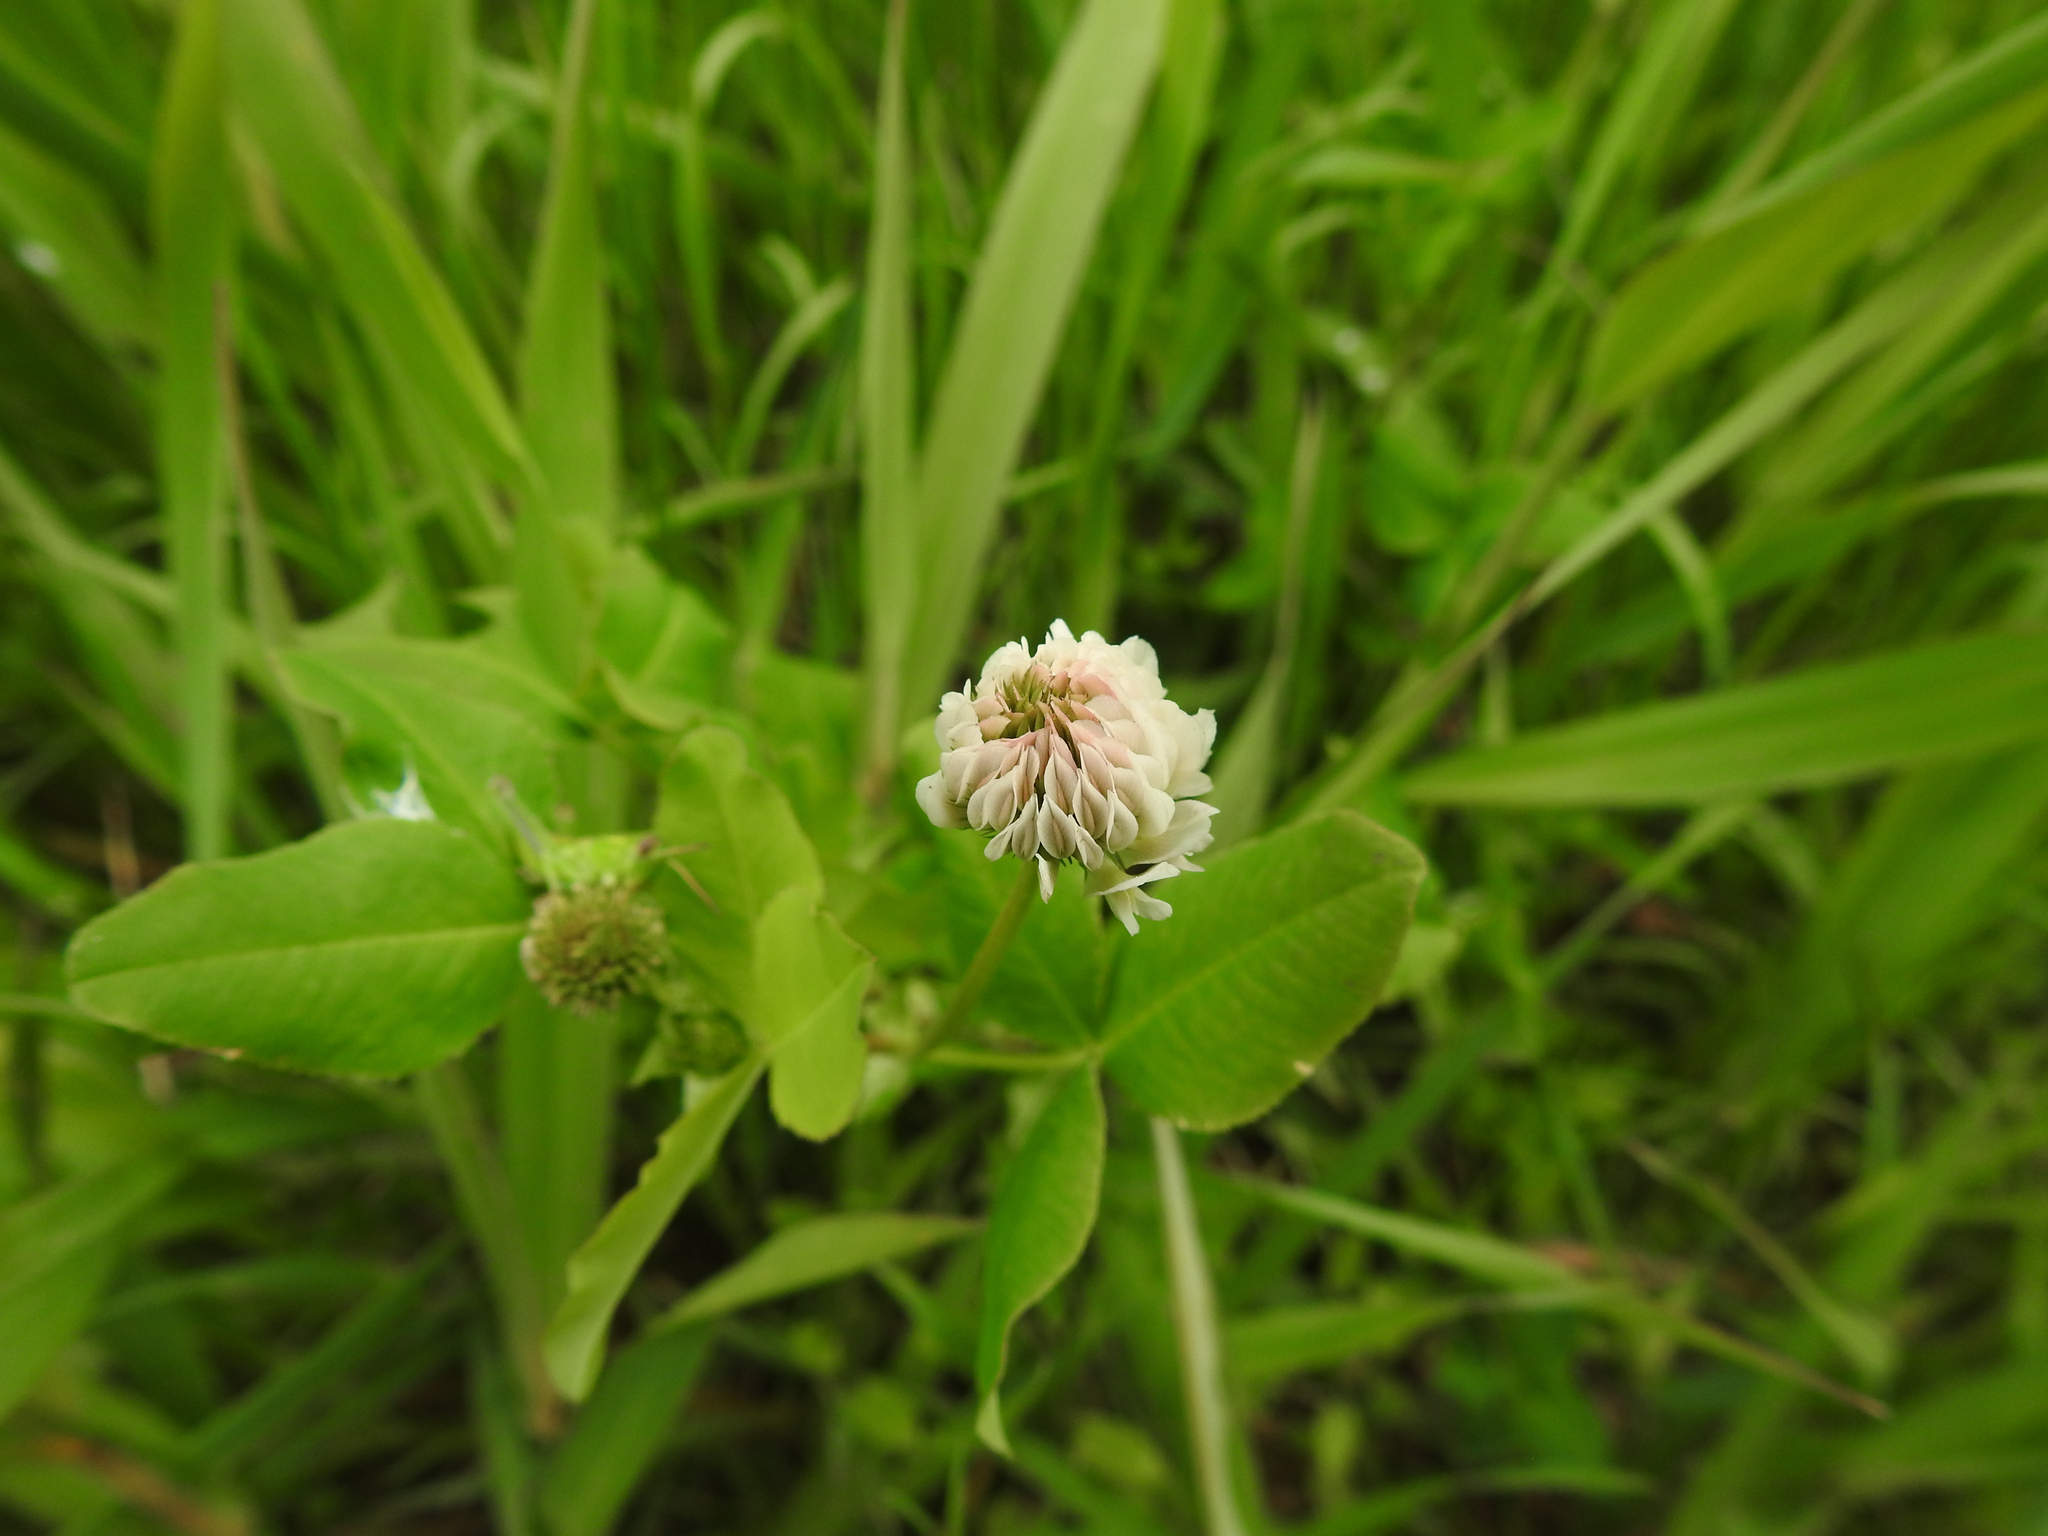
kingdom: Plantae
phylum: Tracheophyta
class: Magnoliopsida
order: Fabales
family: Fabaceae
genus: Trifolium
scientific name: Trifolium hybridum
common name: Alsike clover
